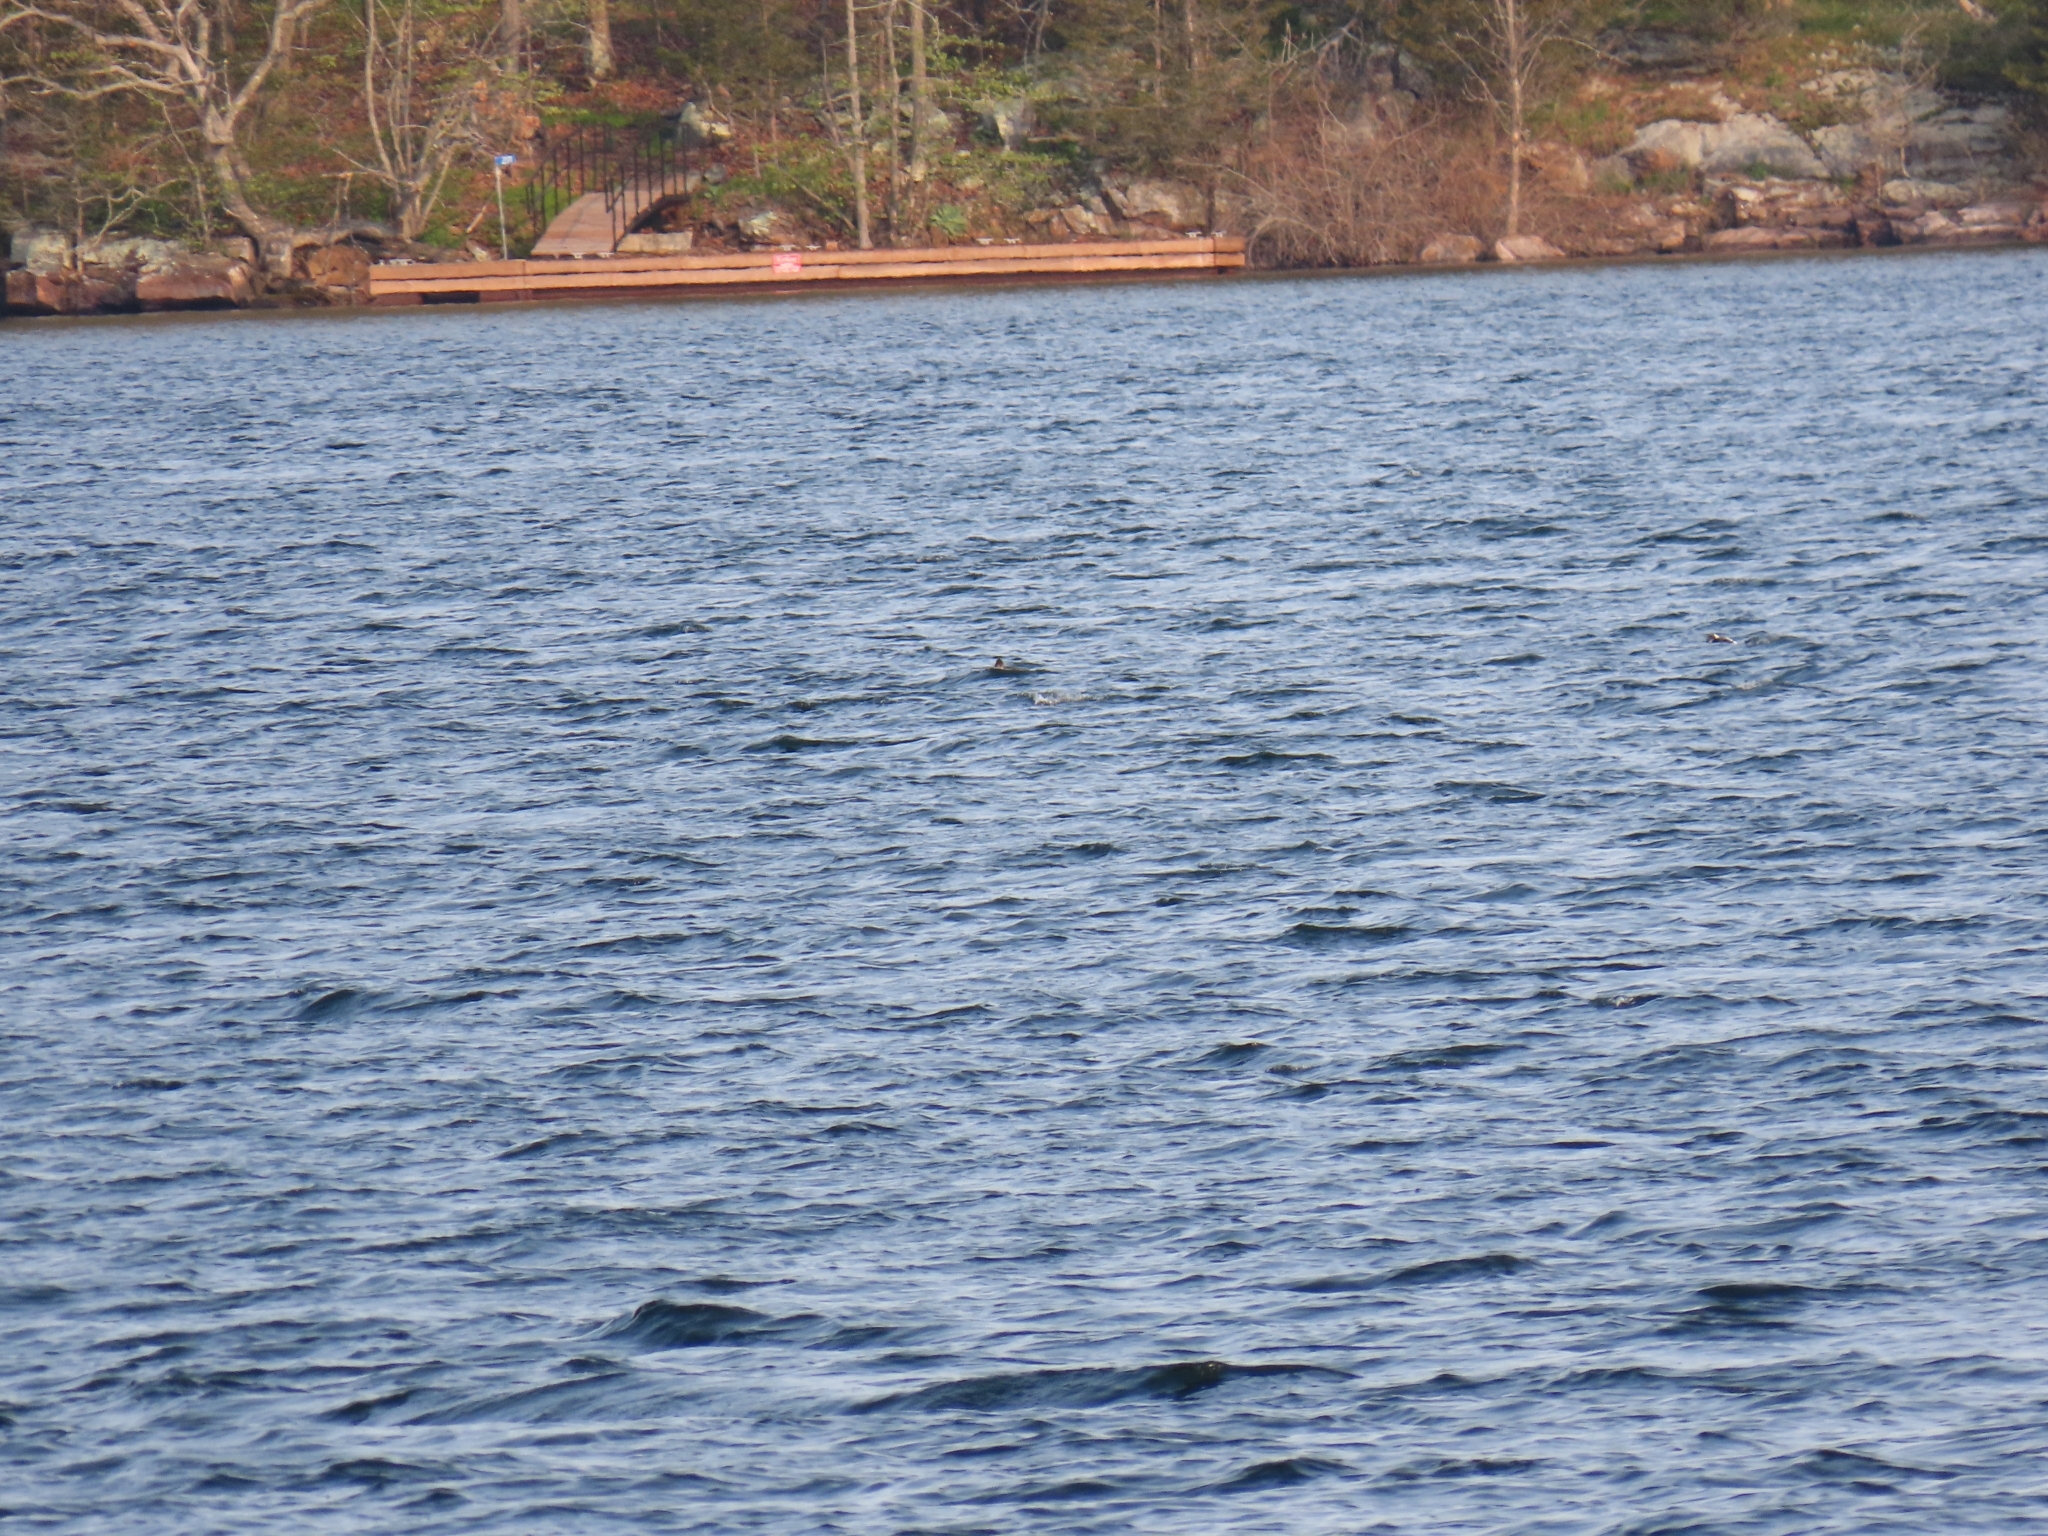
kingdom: Animalia
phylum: Chordata
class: Aves
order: Anseriformes
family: Anatidae
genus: Clangula
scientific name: Clangula hyemalis
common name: Long-tailed duck
